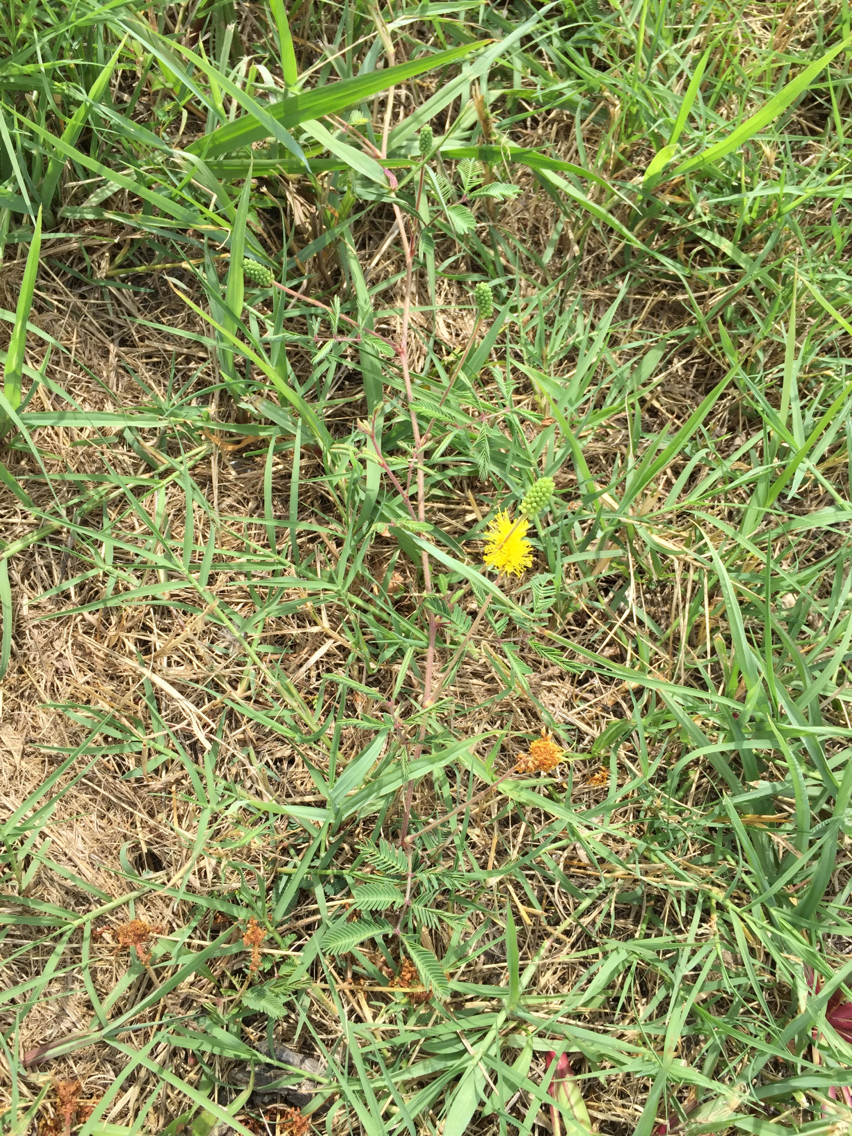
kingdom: Plantae
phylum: Tracheophyta
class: Magnoliopsida
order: Fabales
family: Fabaceae
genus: Neptunia
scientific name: Neptunia lutea
